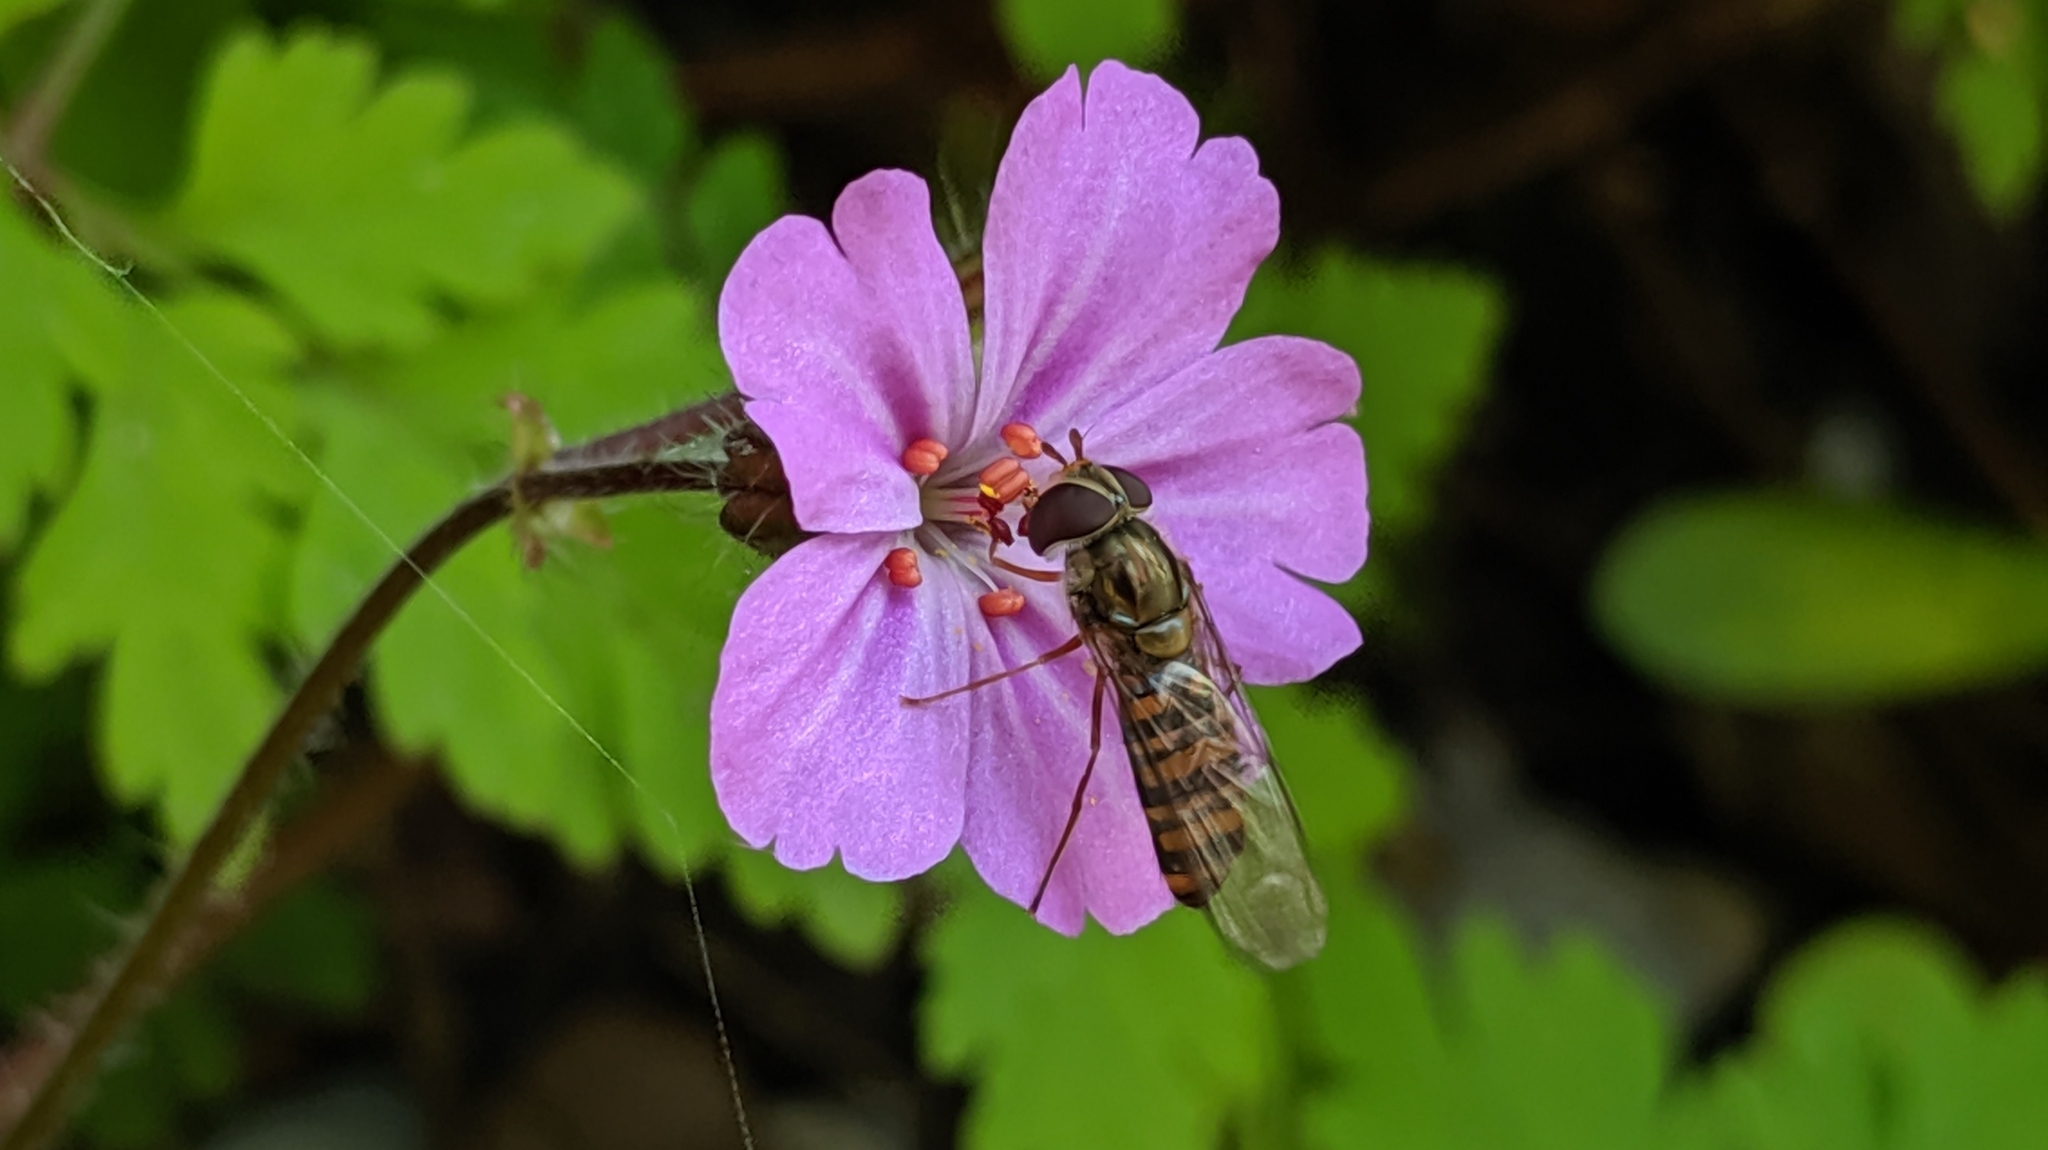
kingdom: Animalia
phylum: Arthropoda
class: Insecta
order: Diptera
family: Syrphidae
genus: Episyrphus
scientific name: Episyrphus balteatus
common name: Marmalade hoverfly
